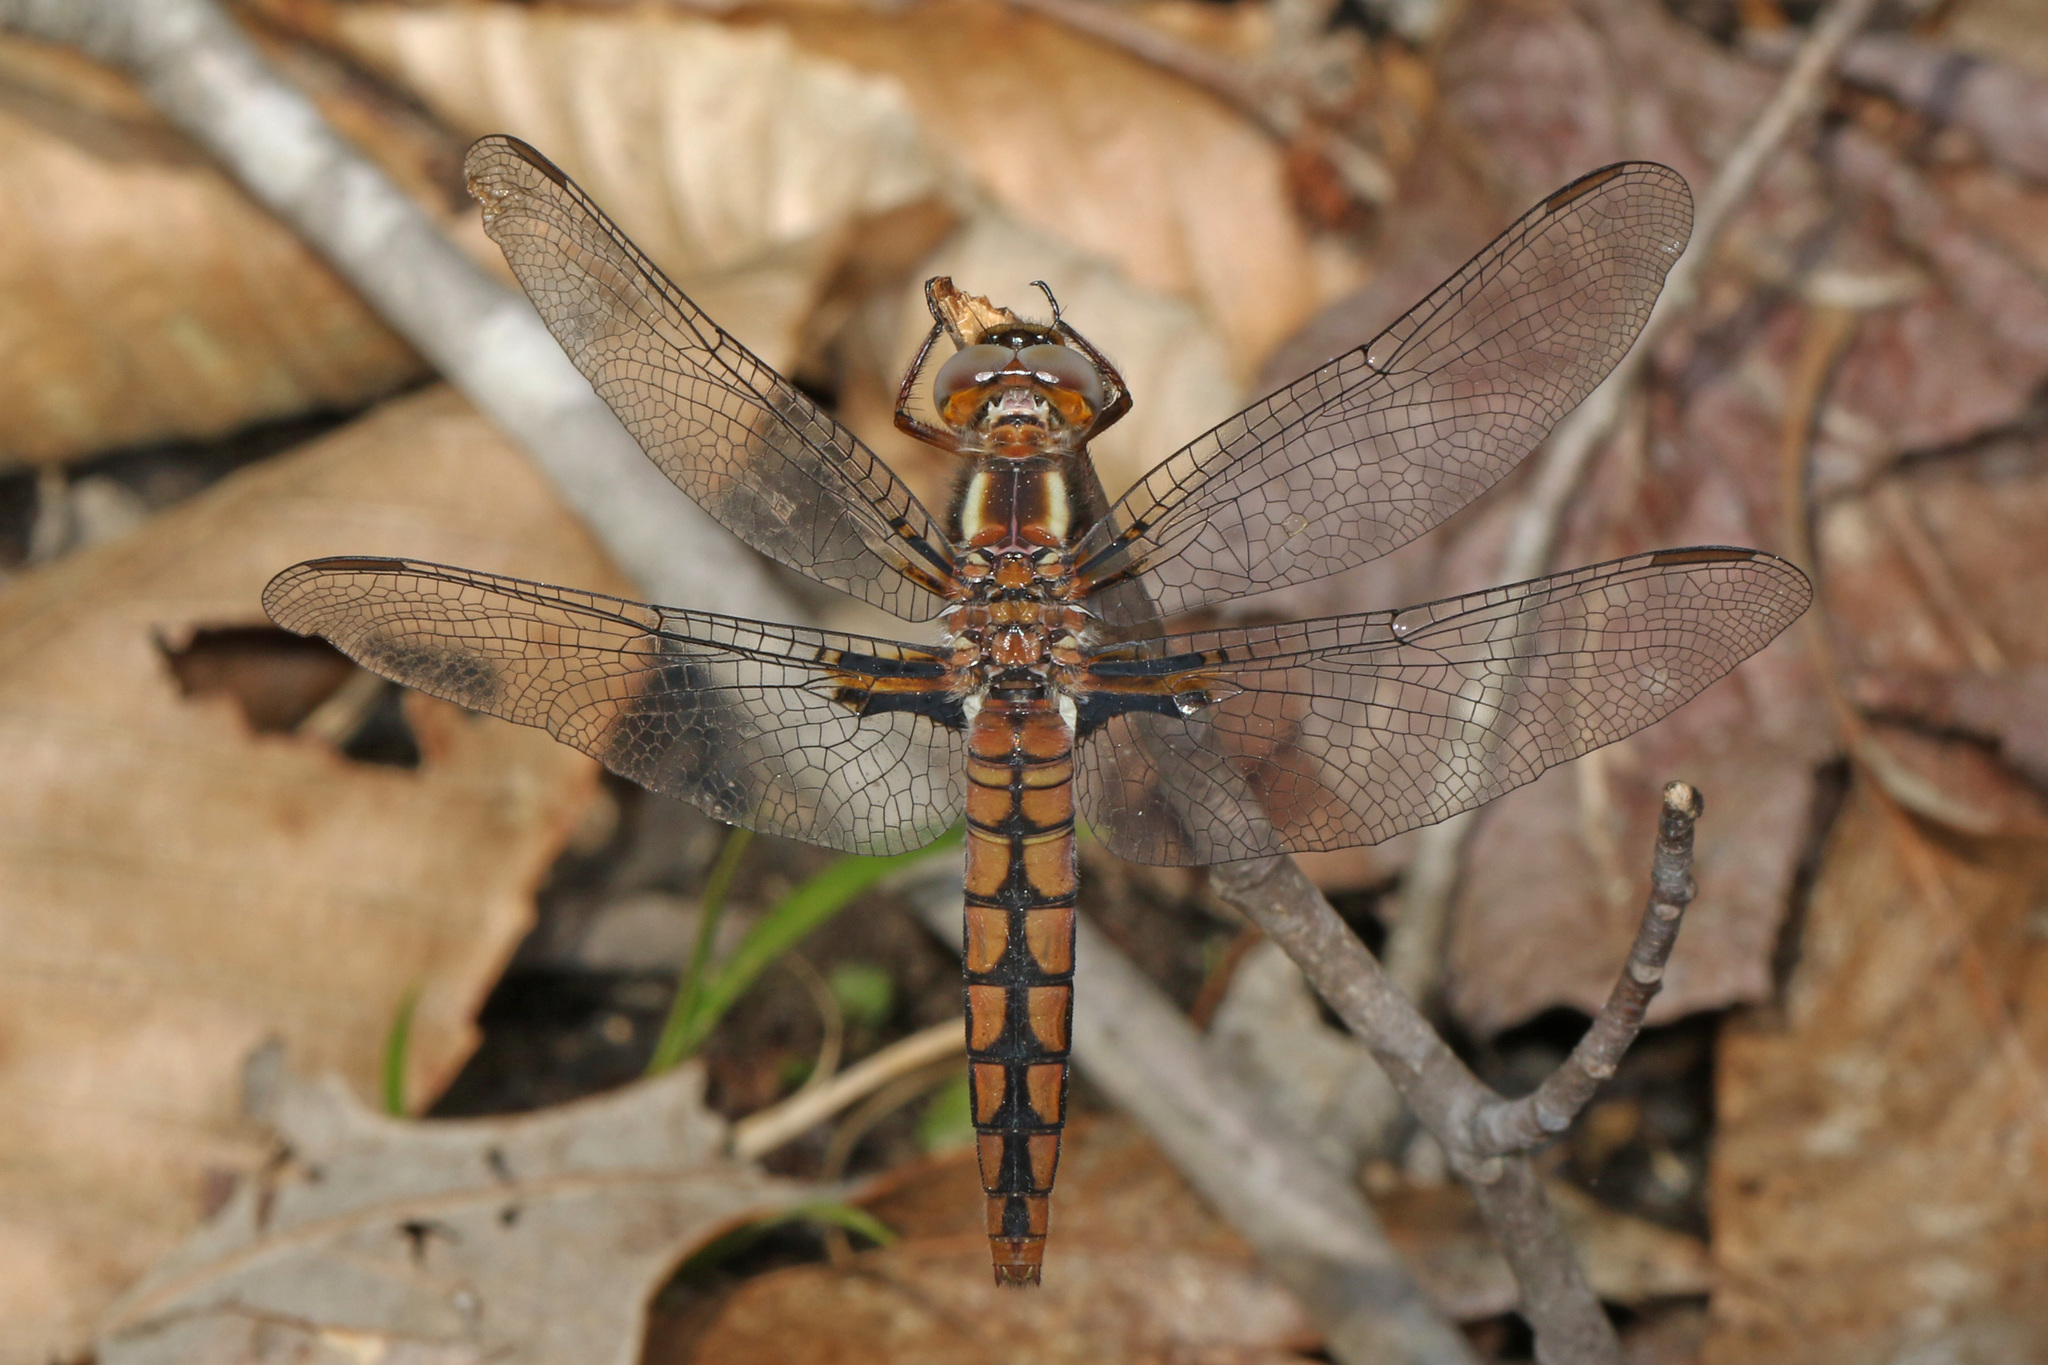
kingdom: Animalia
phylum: Arthropoda
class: Insecta
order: Odonata
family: Libellulidae
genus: Ladona
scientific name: Ladona deplanata
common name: Blue corporal
